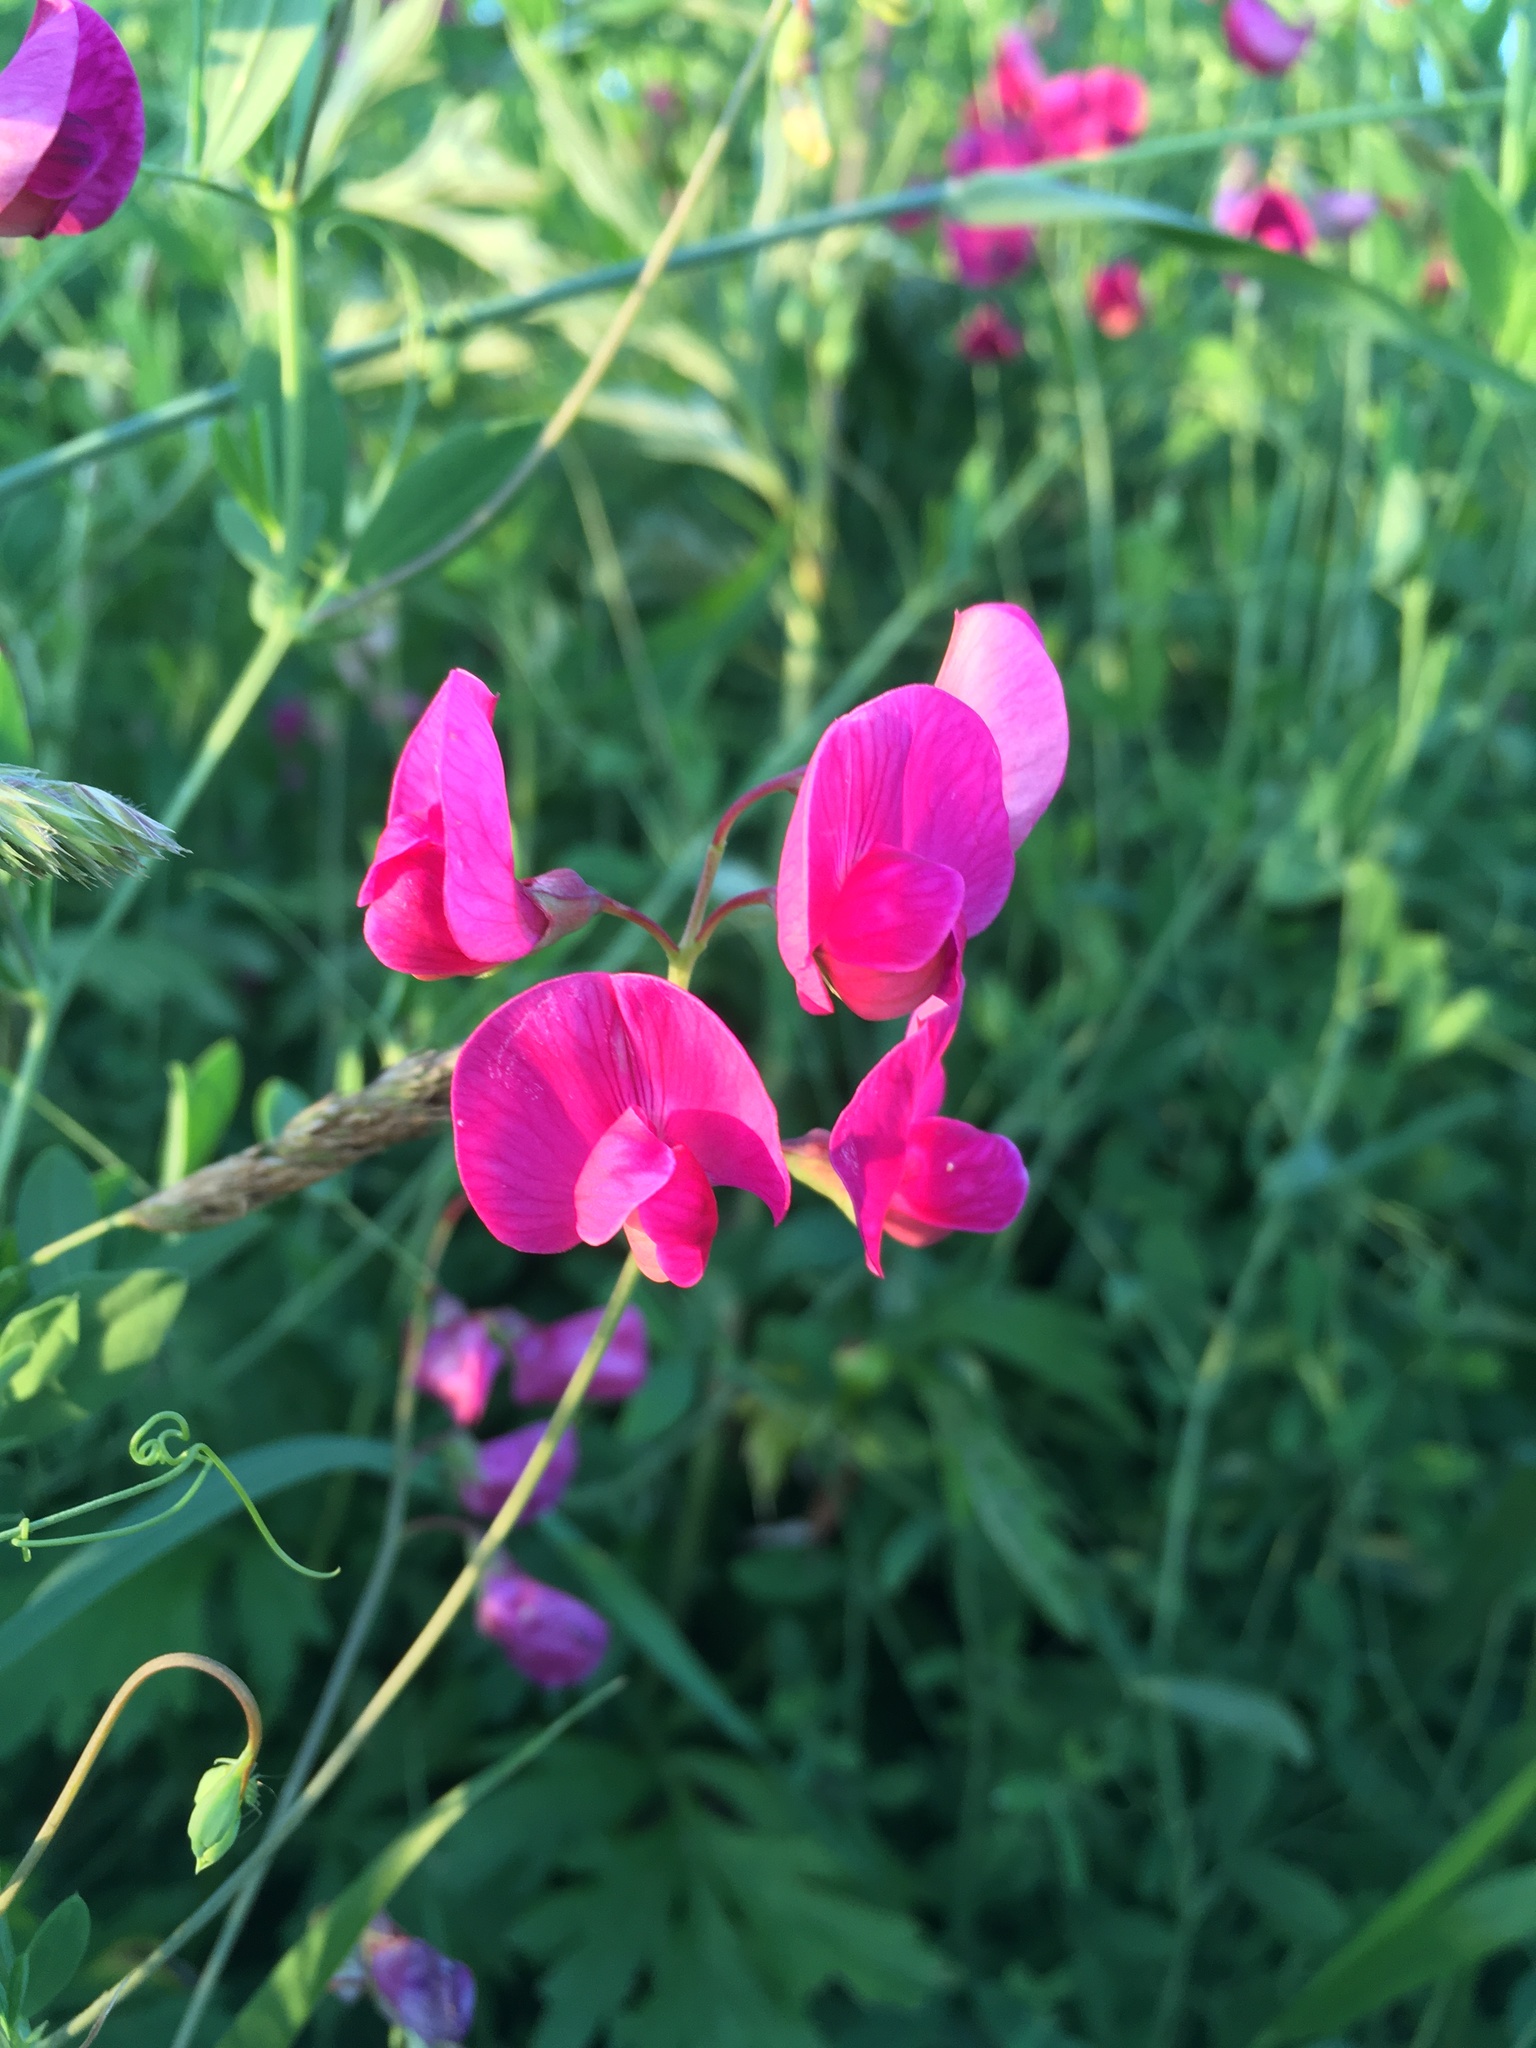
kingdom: Plantae
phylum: Tracheophyta
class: Magnoliopsida
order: Fabales
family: Fabaceae
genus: Lathyrus
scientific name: Lathyrus tuberosus
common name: Tuberous pea
